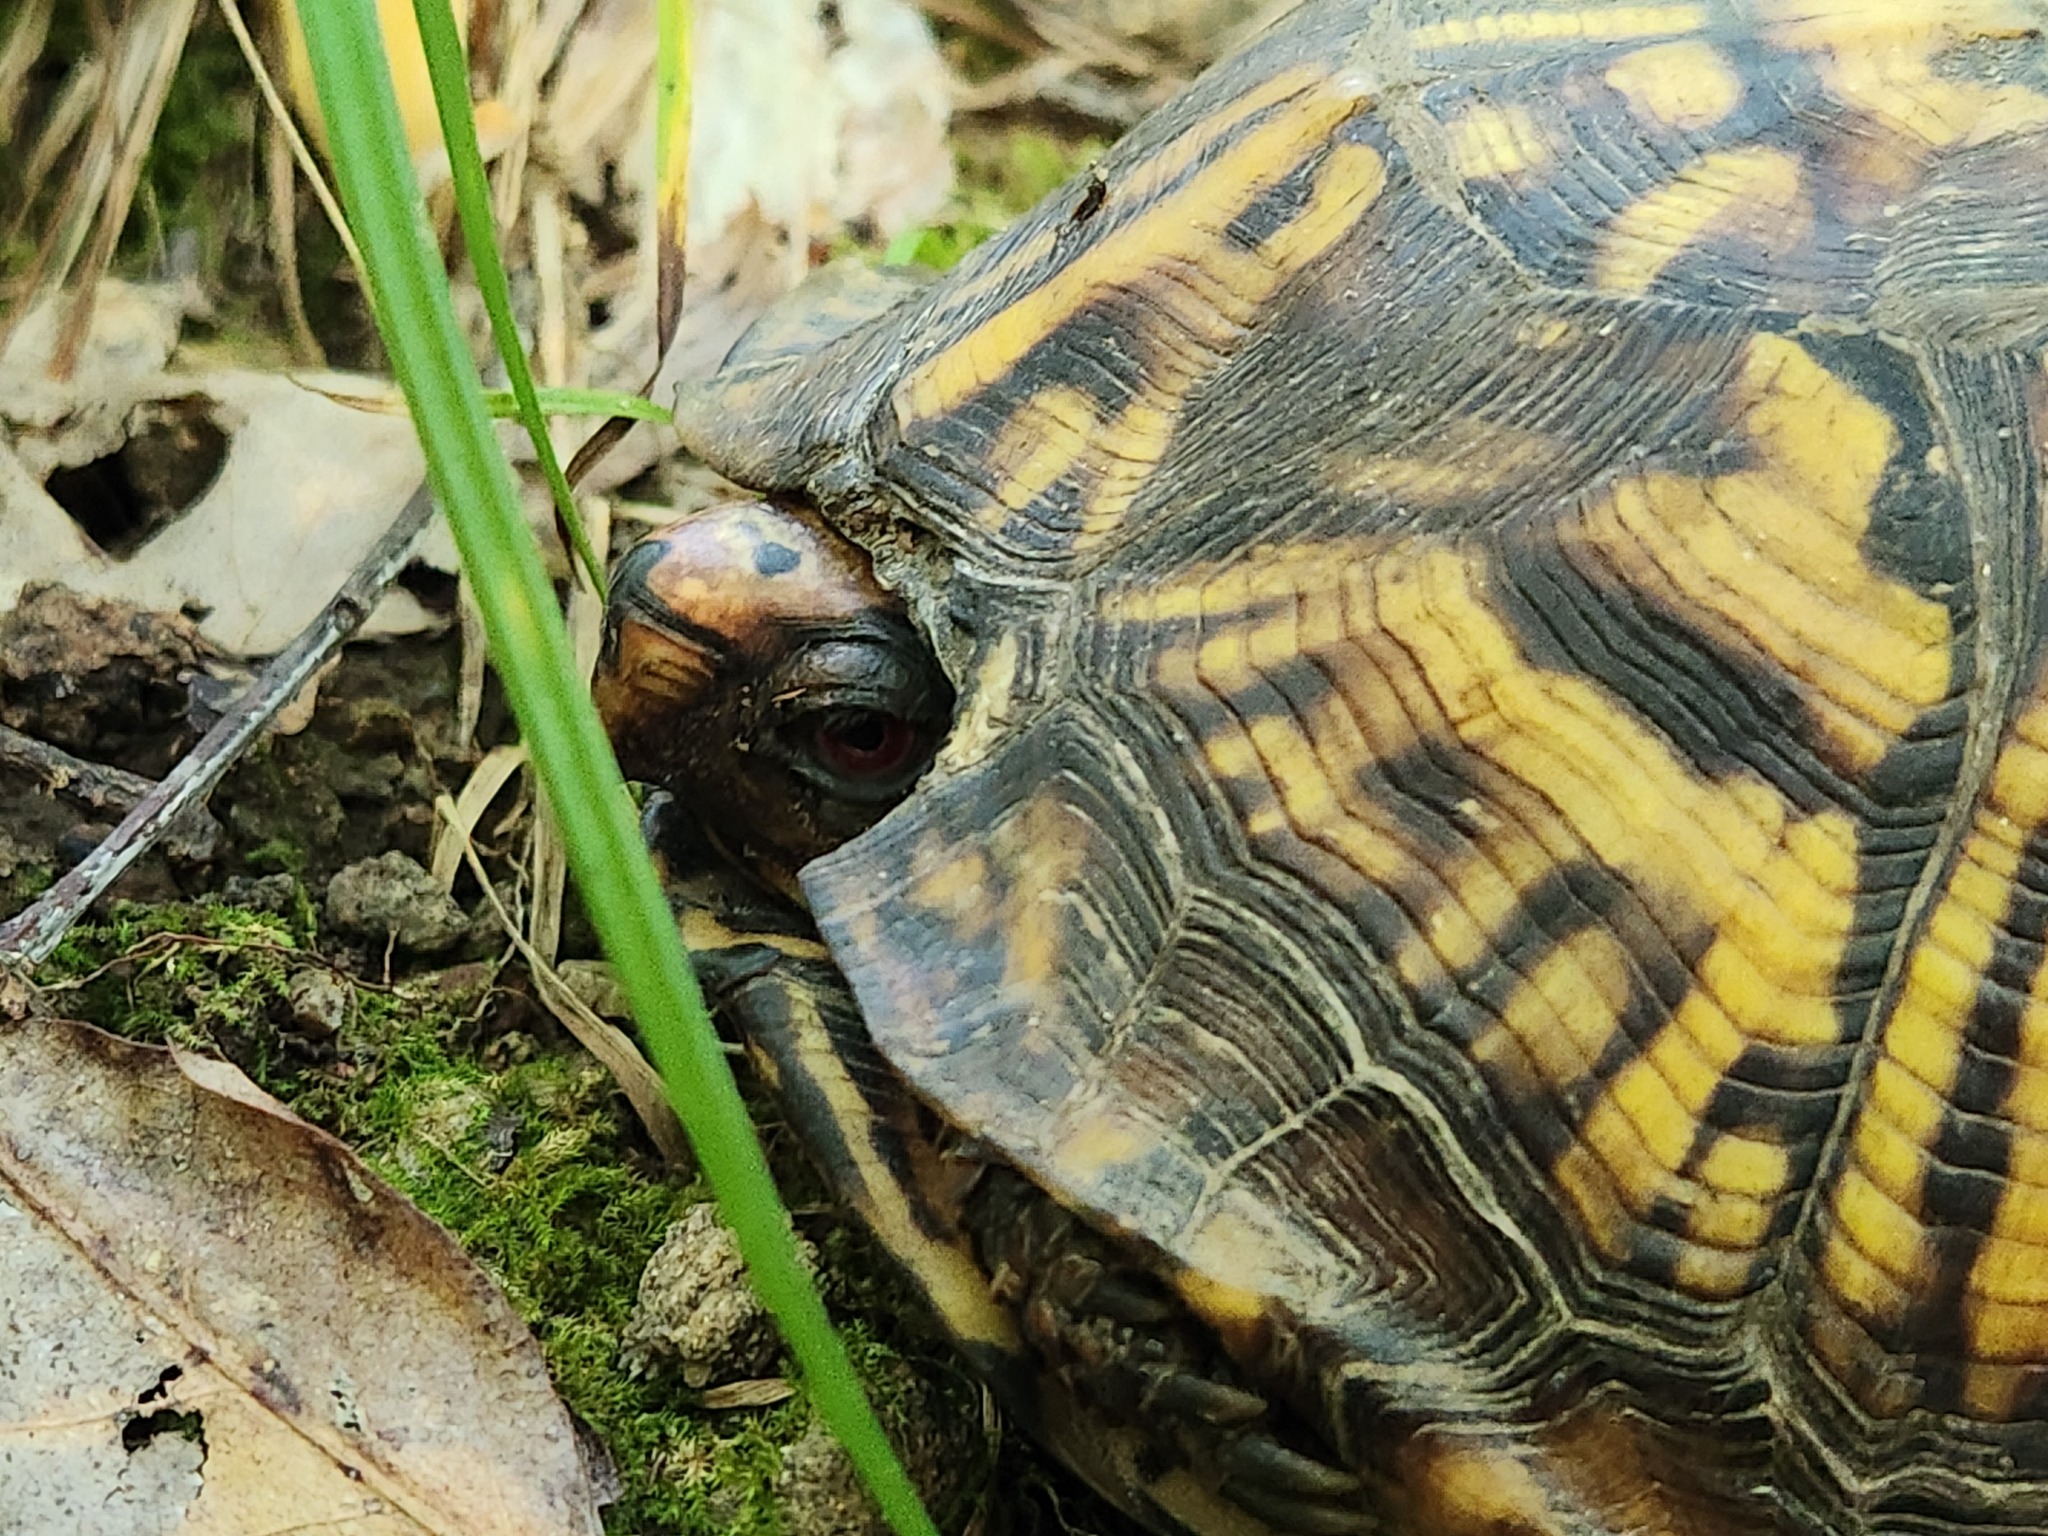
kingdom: Animalia
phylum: Chordata
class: Testudines
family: Emydidae
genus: Terrapene
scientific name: Terrapene carolina
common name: Common box turtle
